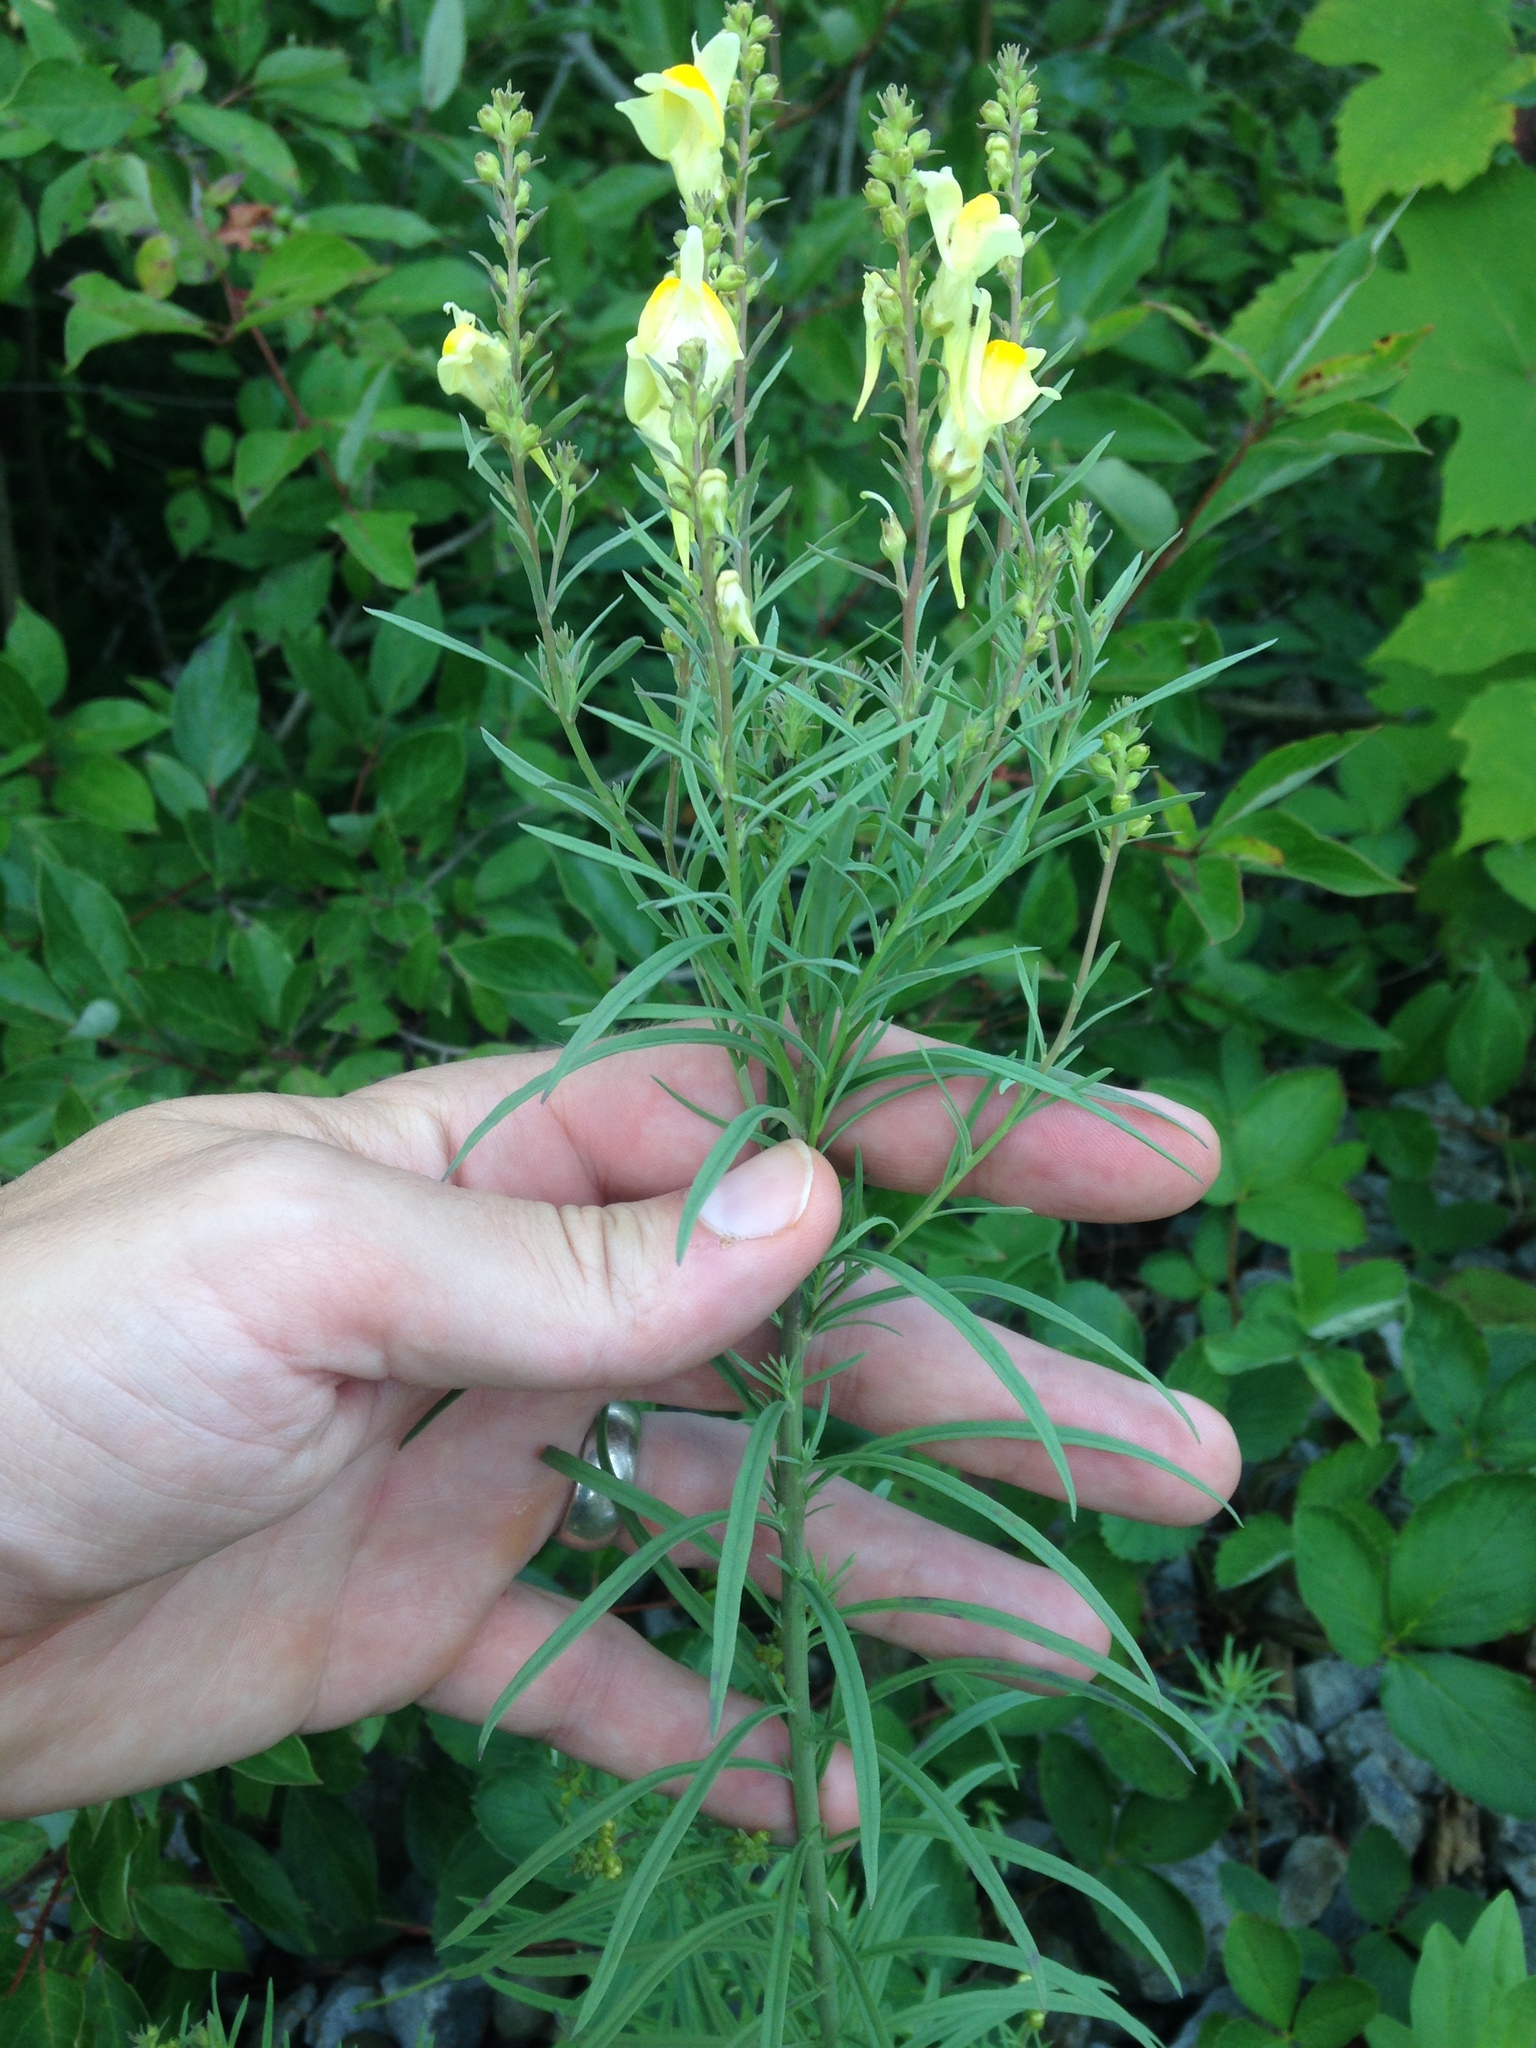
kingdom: Plantae
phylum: Tracheophyta
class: Magnoliopsida
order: Lamiales
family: Plantaginaceae
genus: Linaria
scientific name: Linaria vulgaris
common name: Butter and eggs
